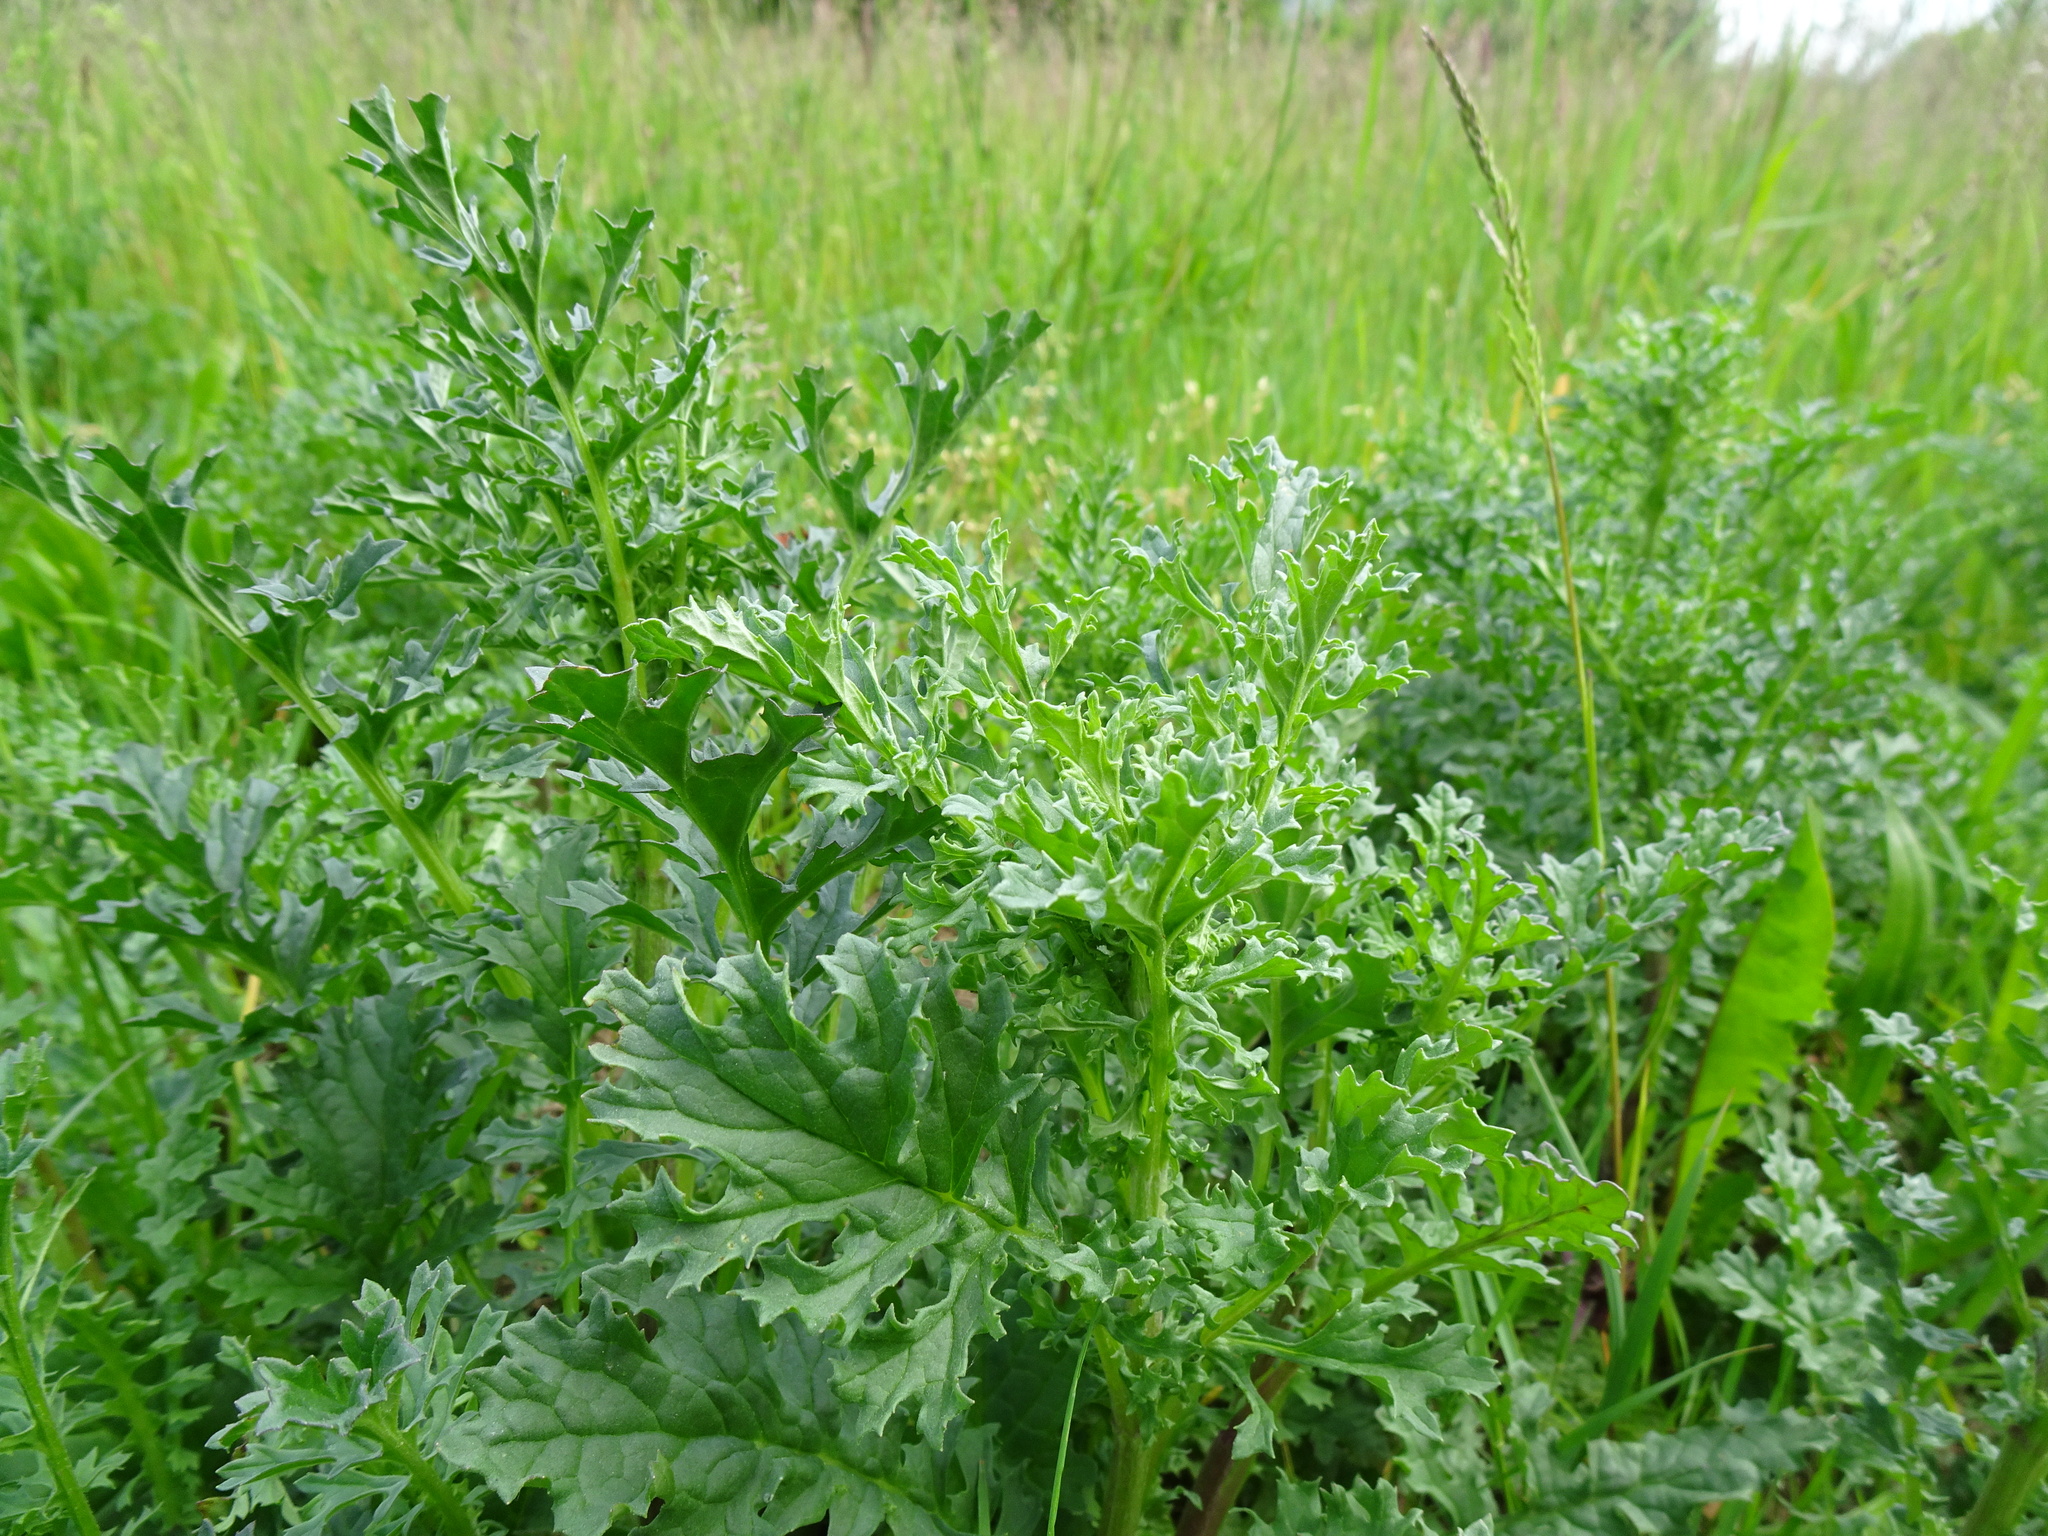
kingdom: Plantae
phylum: Tracheophyta
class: Magnoliopsida
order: Asterales
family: Asteraceae
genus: Jacobaea
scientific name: Jacobaea vulgaris
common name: Stinking willie
